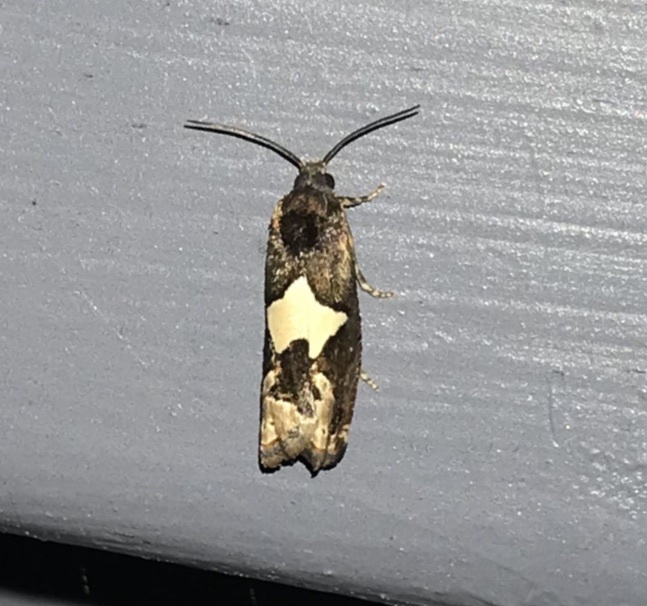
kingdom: Animalia
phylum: Arthropoda
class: Insecta
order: Lepidoptera
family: Tortricidae
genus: Epiblema
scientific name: Epiblema otiosana
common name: Bidens borer moth
